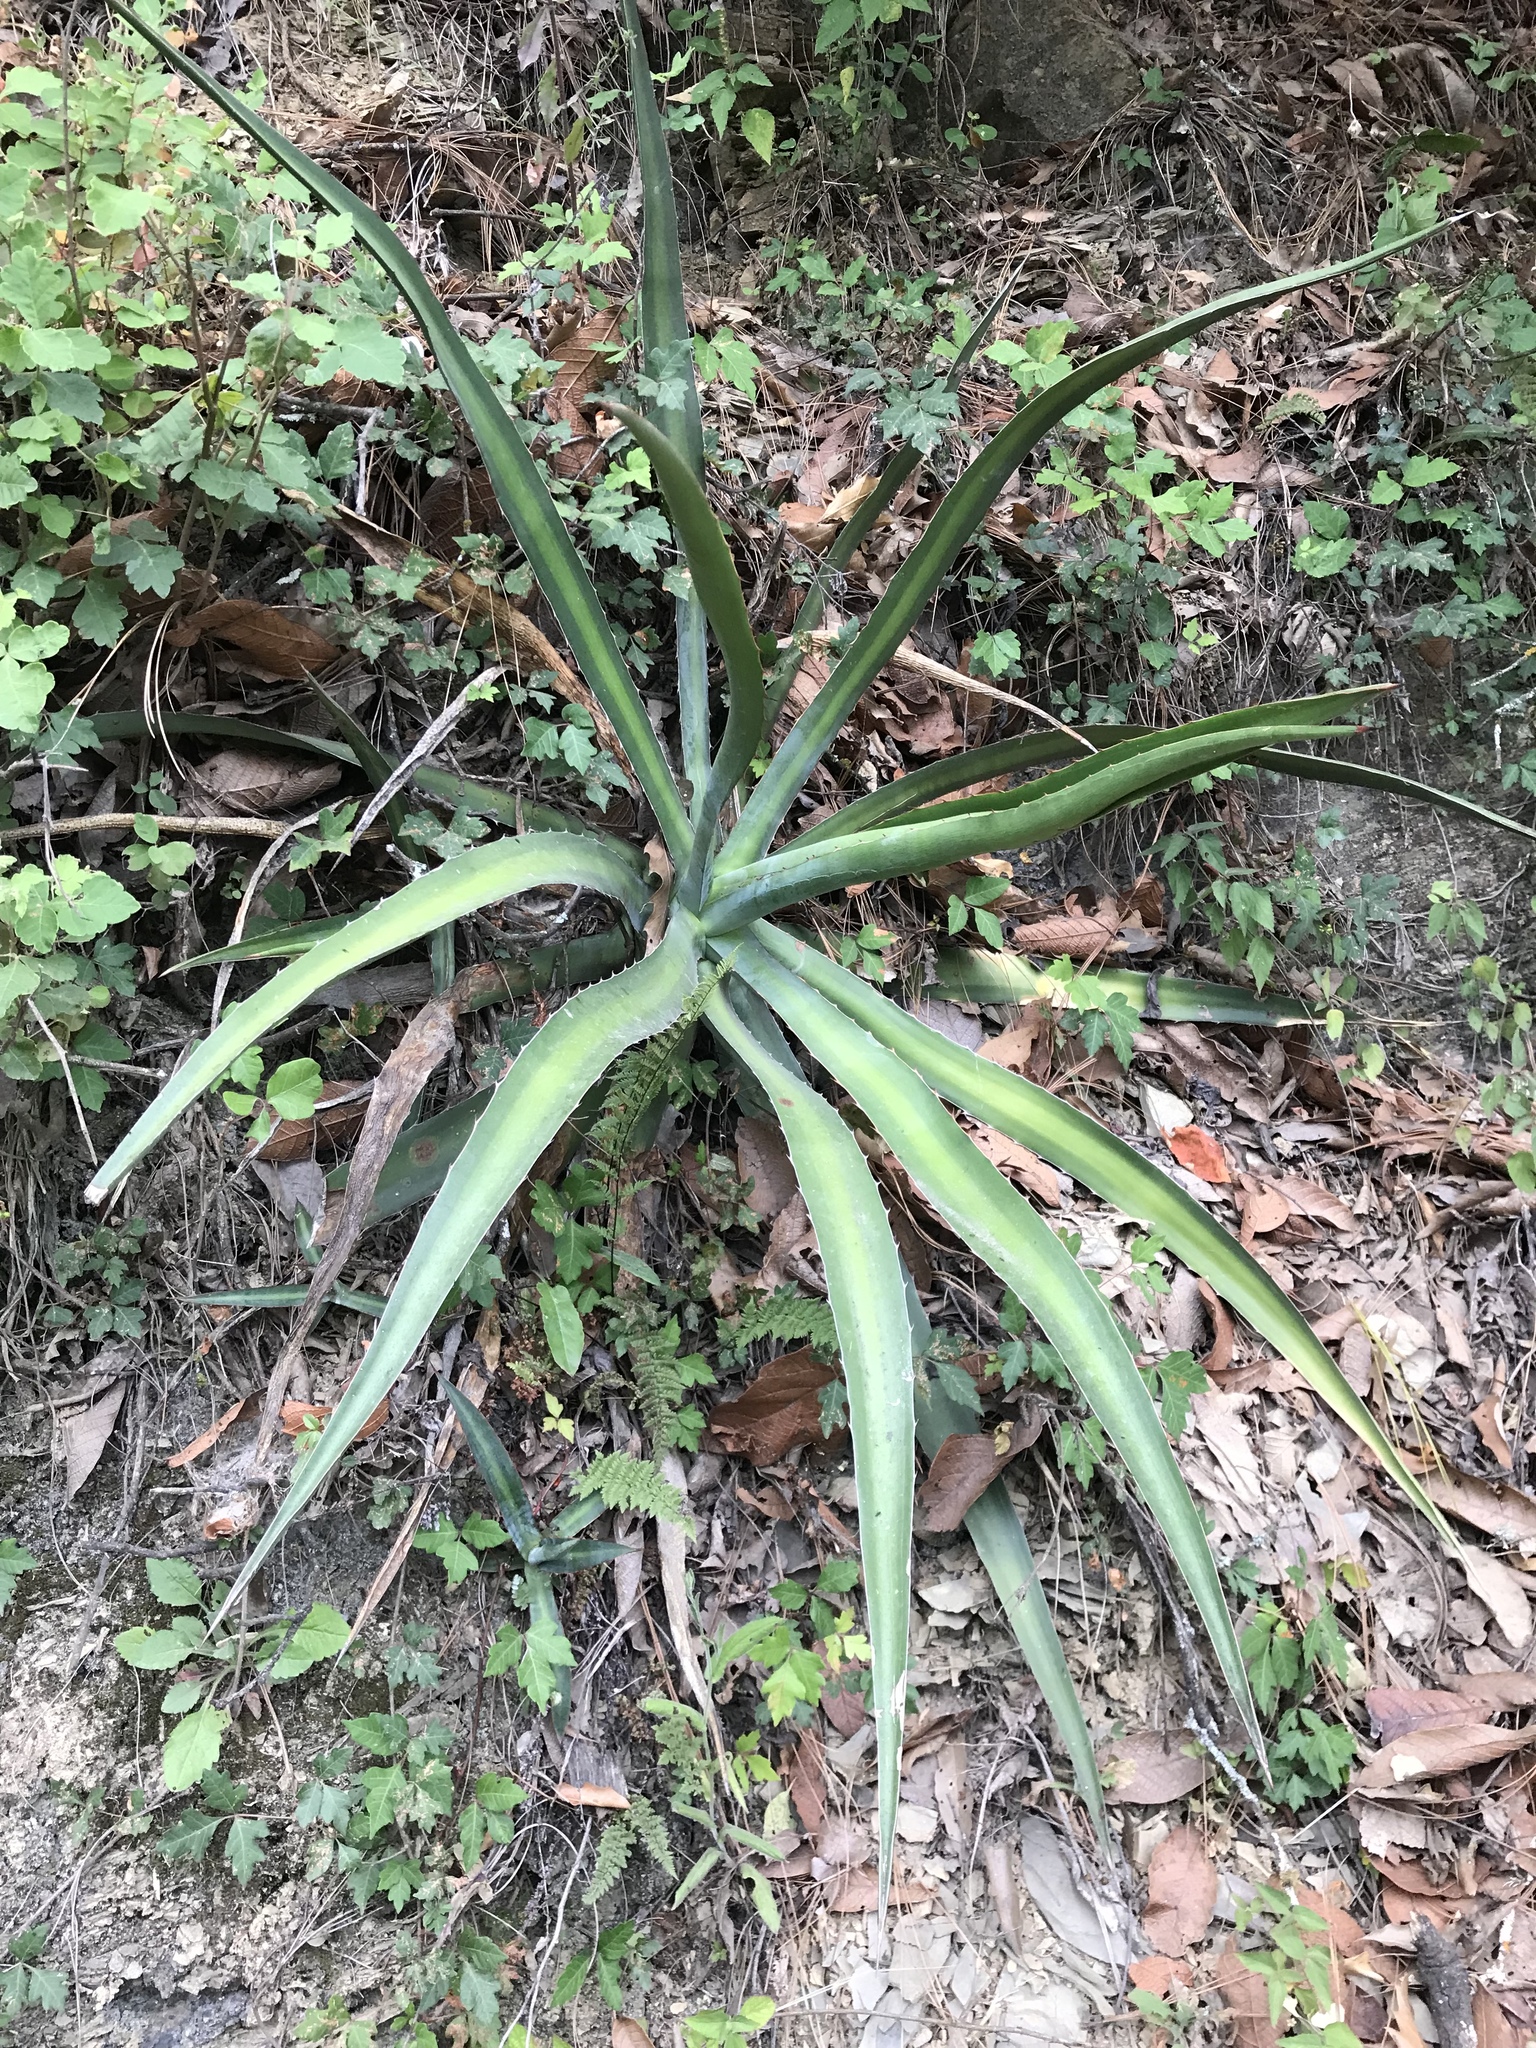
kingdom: Plantae
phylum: Tracheophyta
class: Liliopsida
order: Asparagales
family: Asparagaceae
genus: Agave
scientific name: Agave difformis
